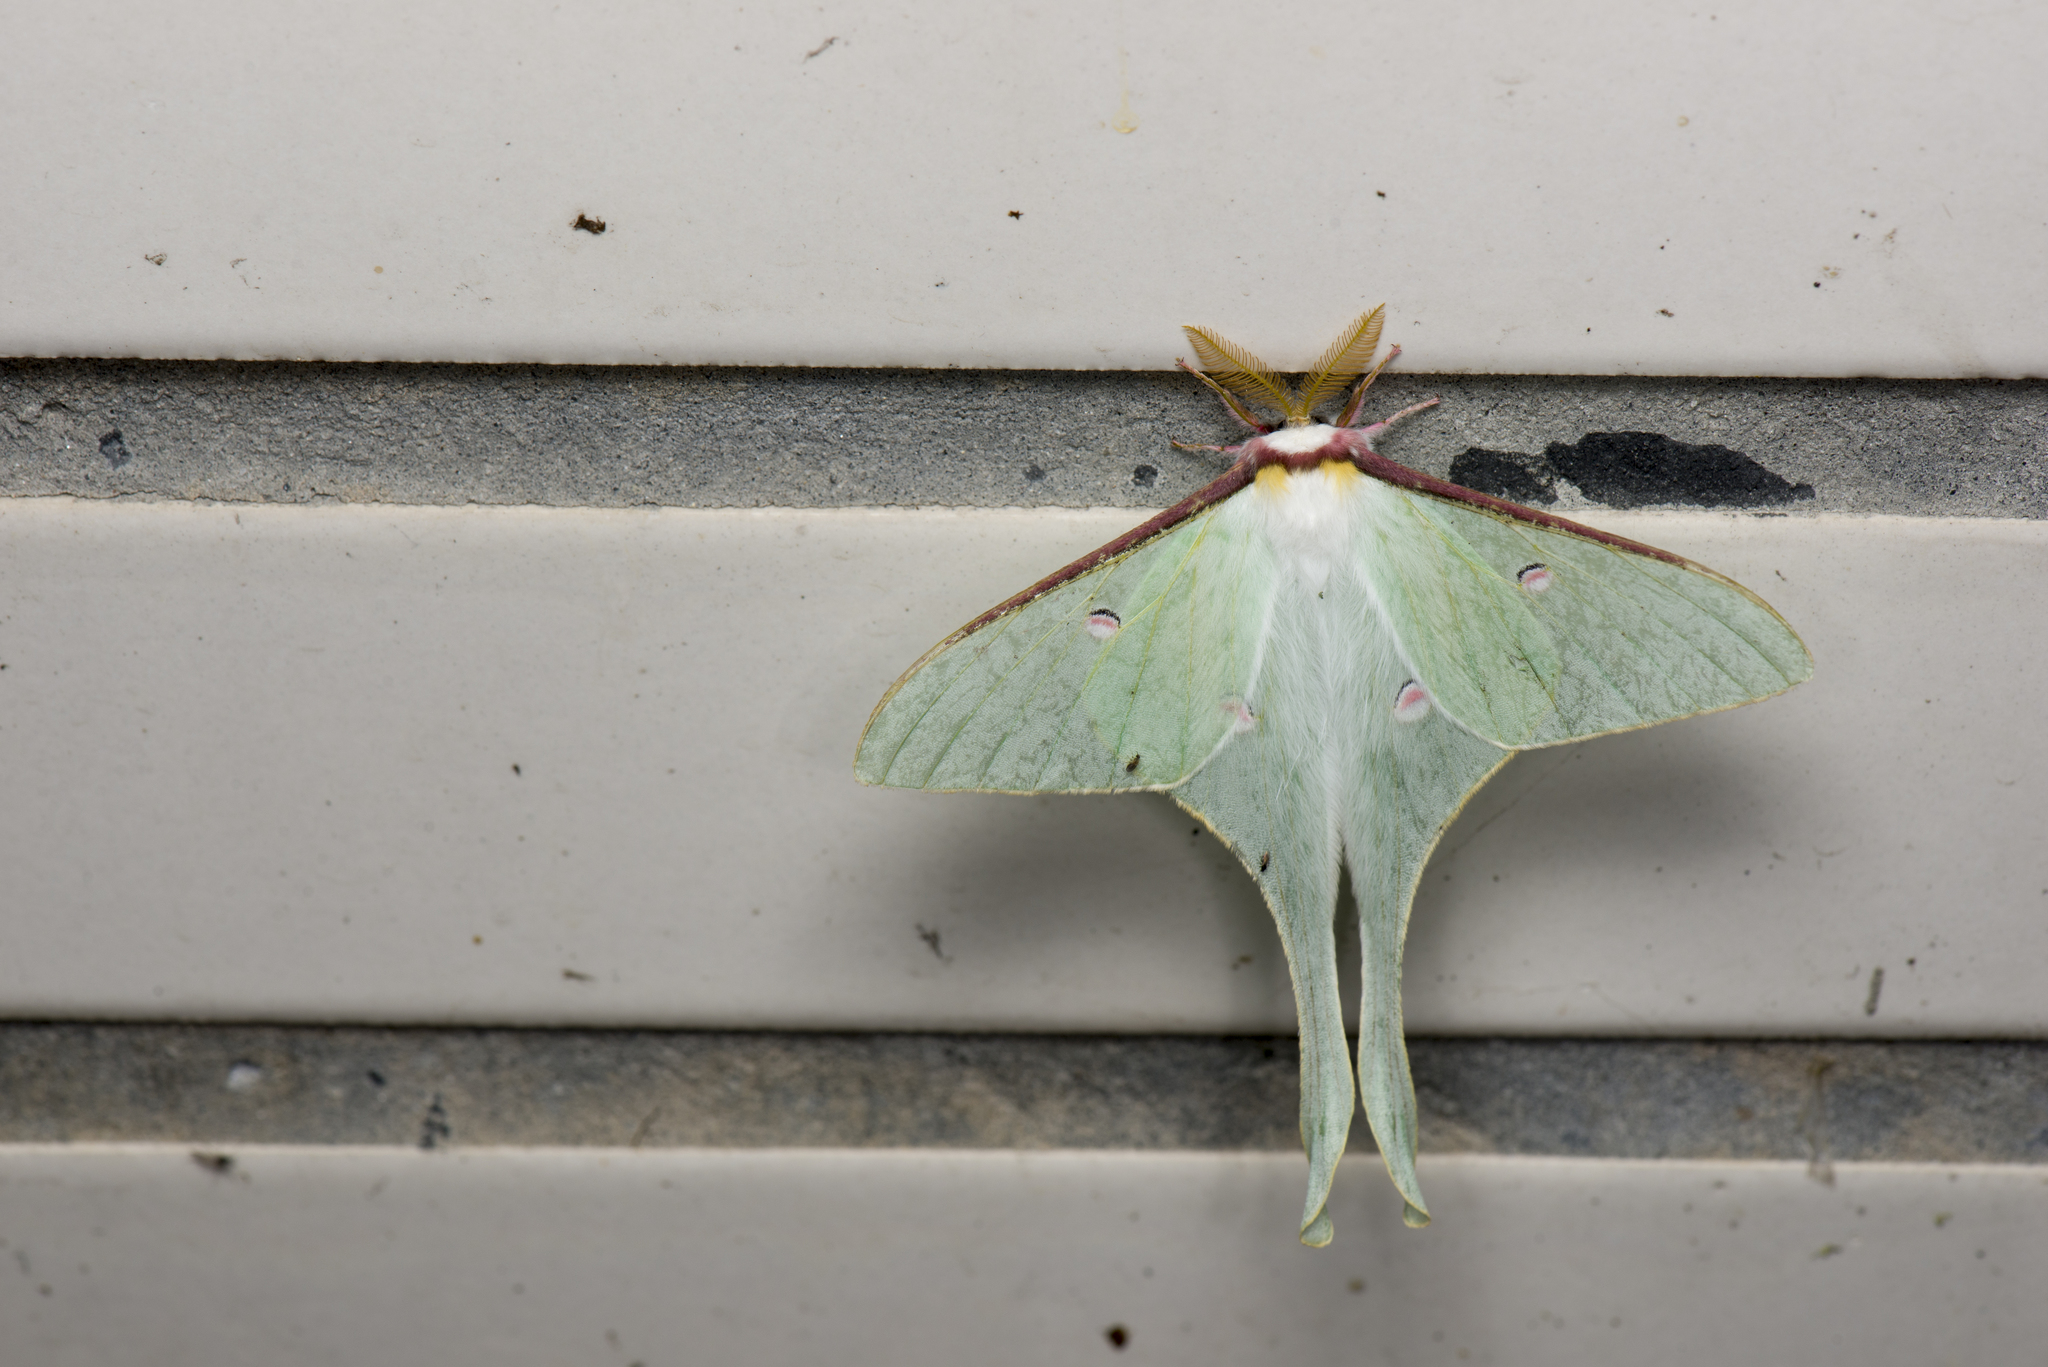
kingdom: Animalia
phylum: Arthropoda
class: Insecta
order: Lepidoptera
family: Saturniidae
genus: Actias
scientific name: Actias neidhoeferi
